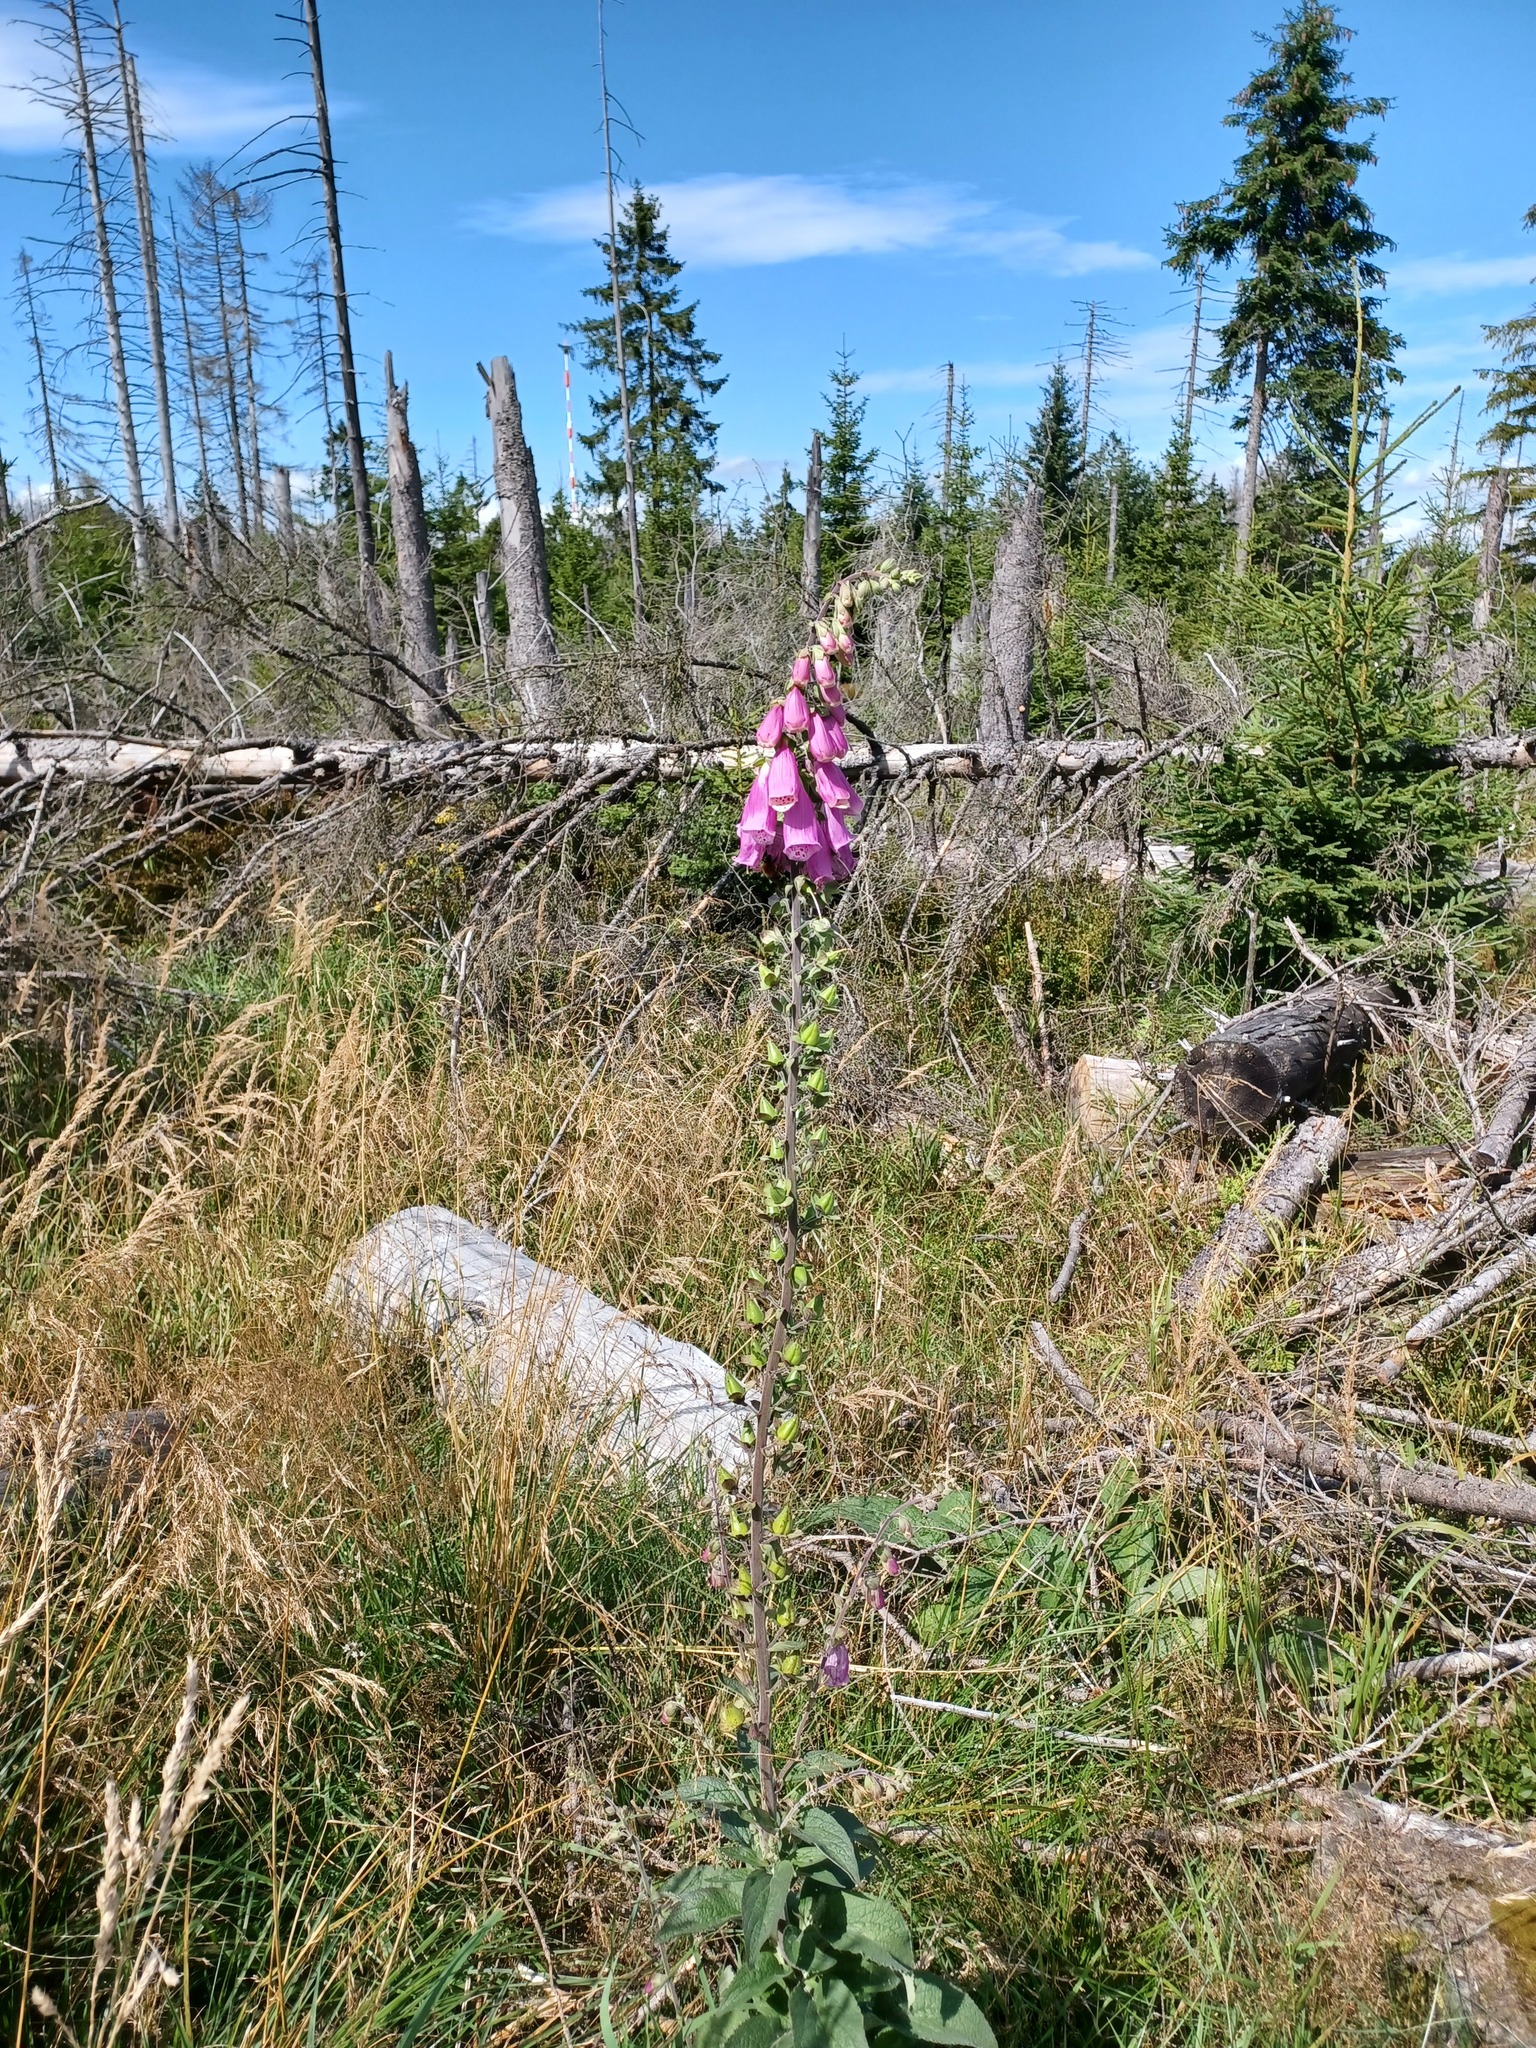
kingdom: Plantae
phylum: Tracheophyta
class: Magnoliopsida
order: Lamiales
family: Plantaginaceae
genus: Digitalis
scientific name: Digitalis purpurea
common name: Foxglove
